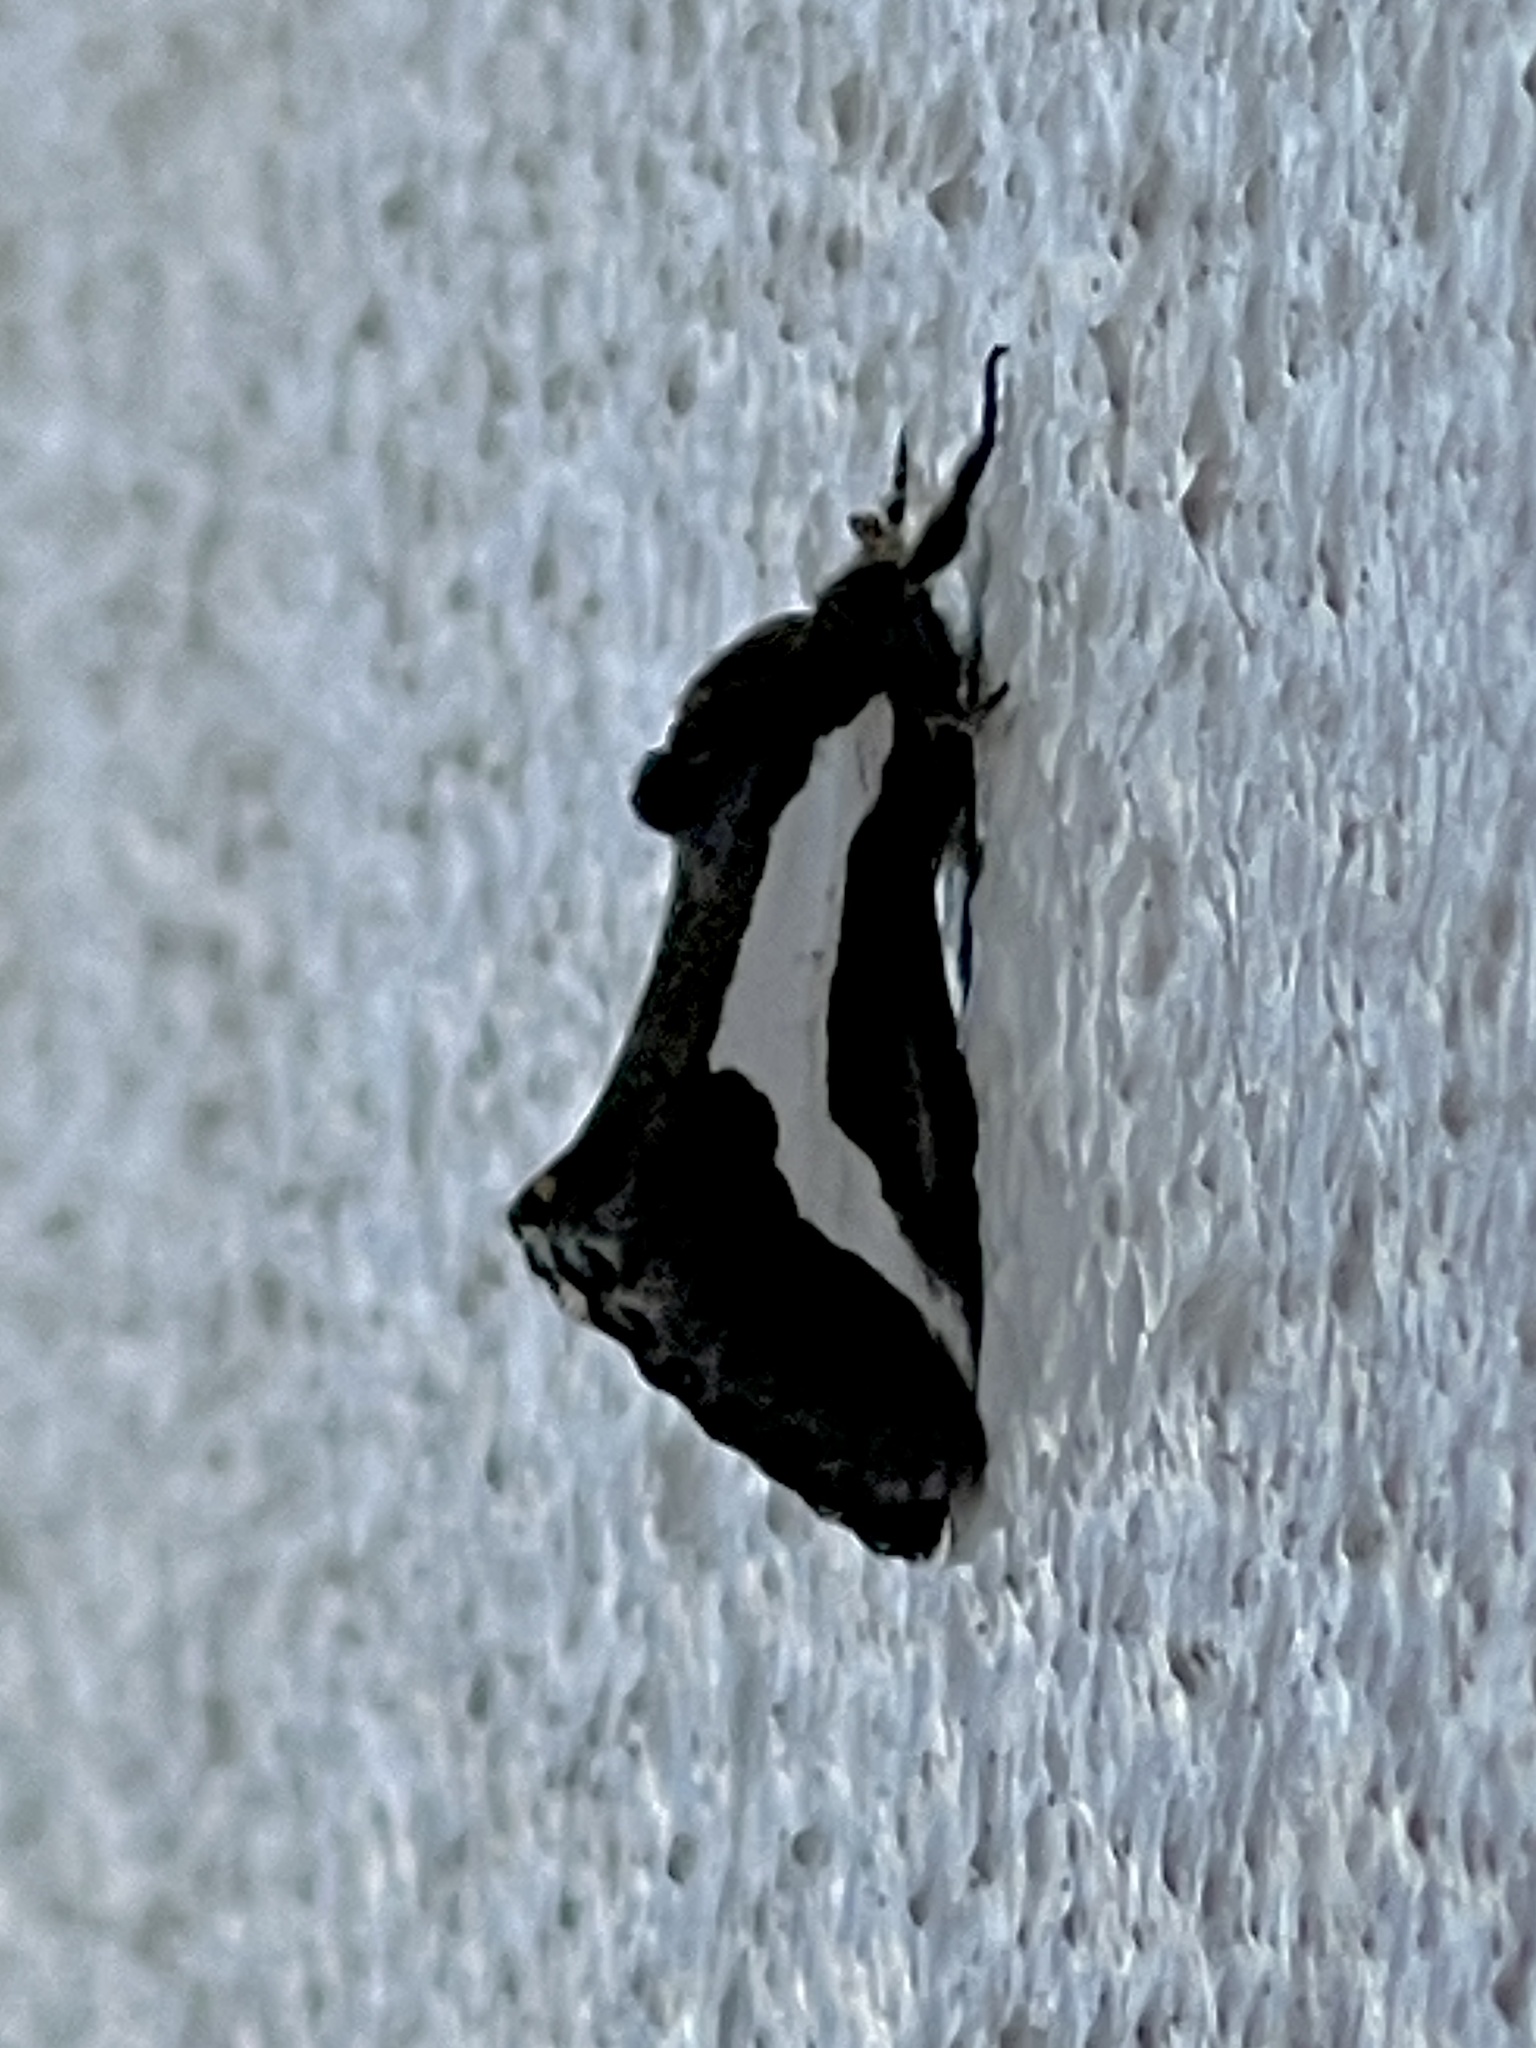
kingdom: Animalia
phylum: Arthropoda
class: Insecta
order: Lepidoptera
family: Noctuidae
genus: Euscirrhopterus
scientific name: Euscirrhopterus cosyra
